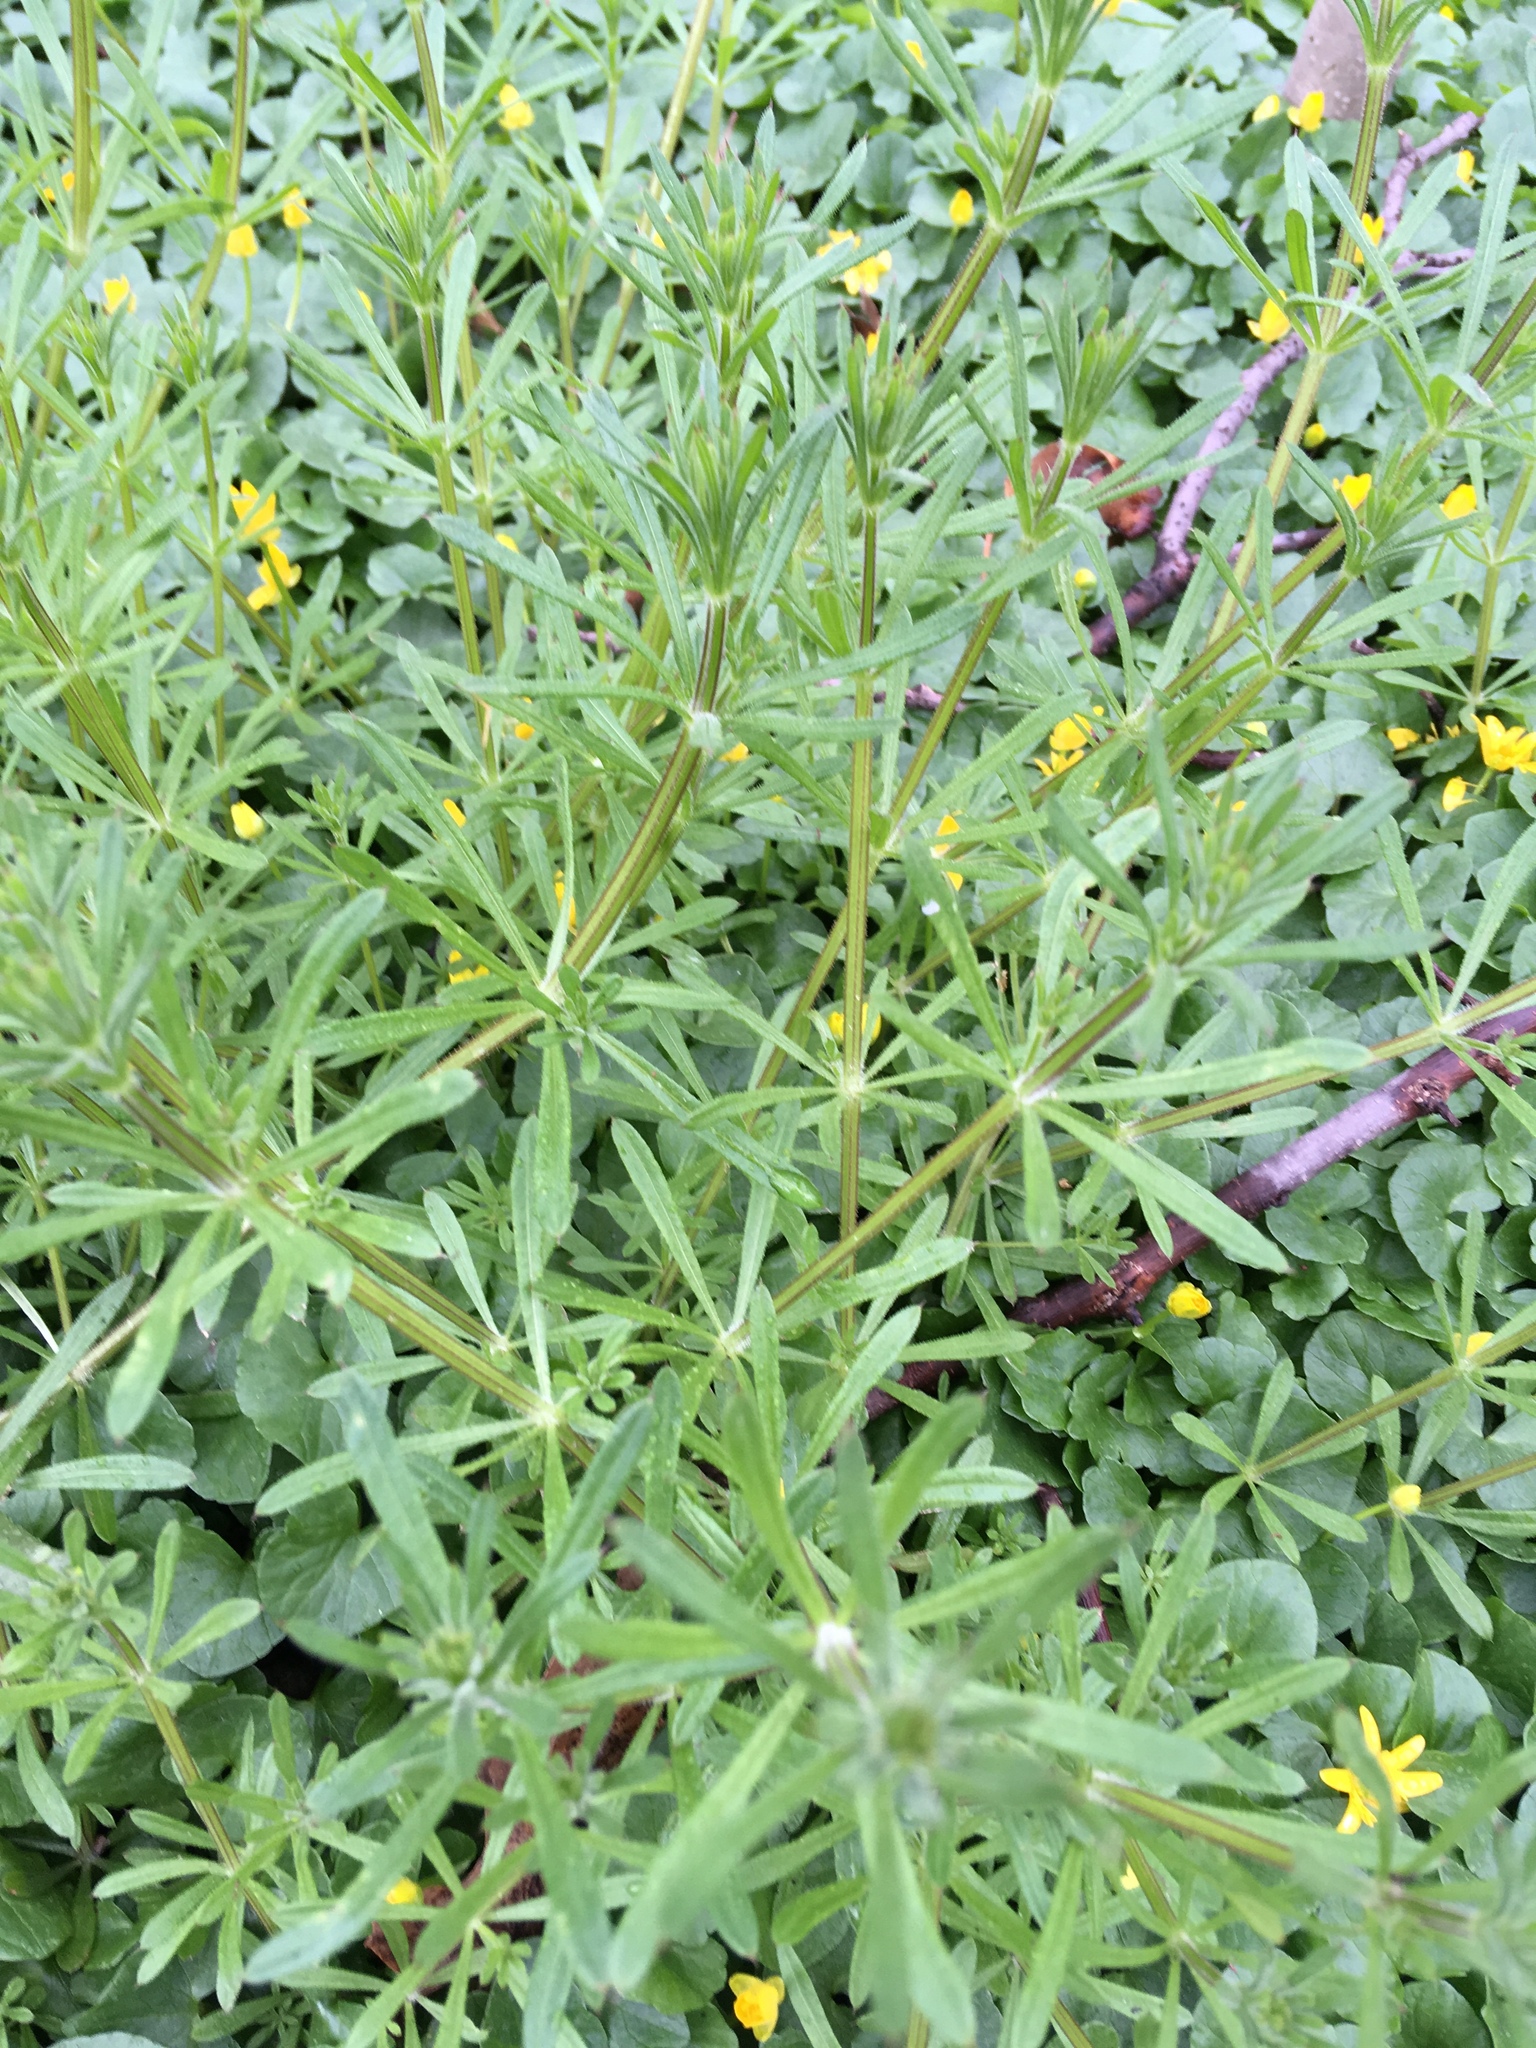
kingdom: Plantae
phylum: Tracheophyta
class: Magnoliopsida
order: Gentianales
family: Rubiaceae
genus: Galium
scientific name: Galium aparine
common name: Cleavers
